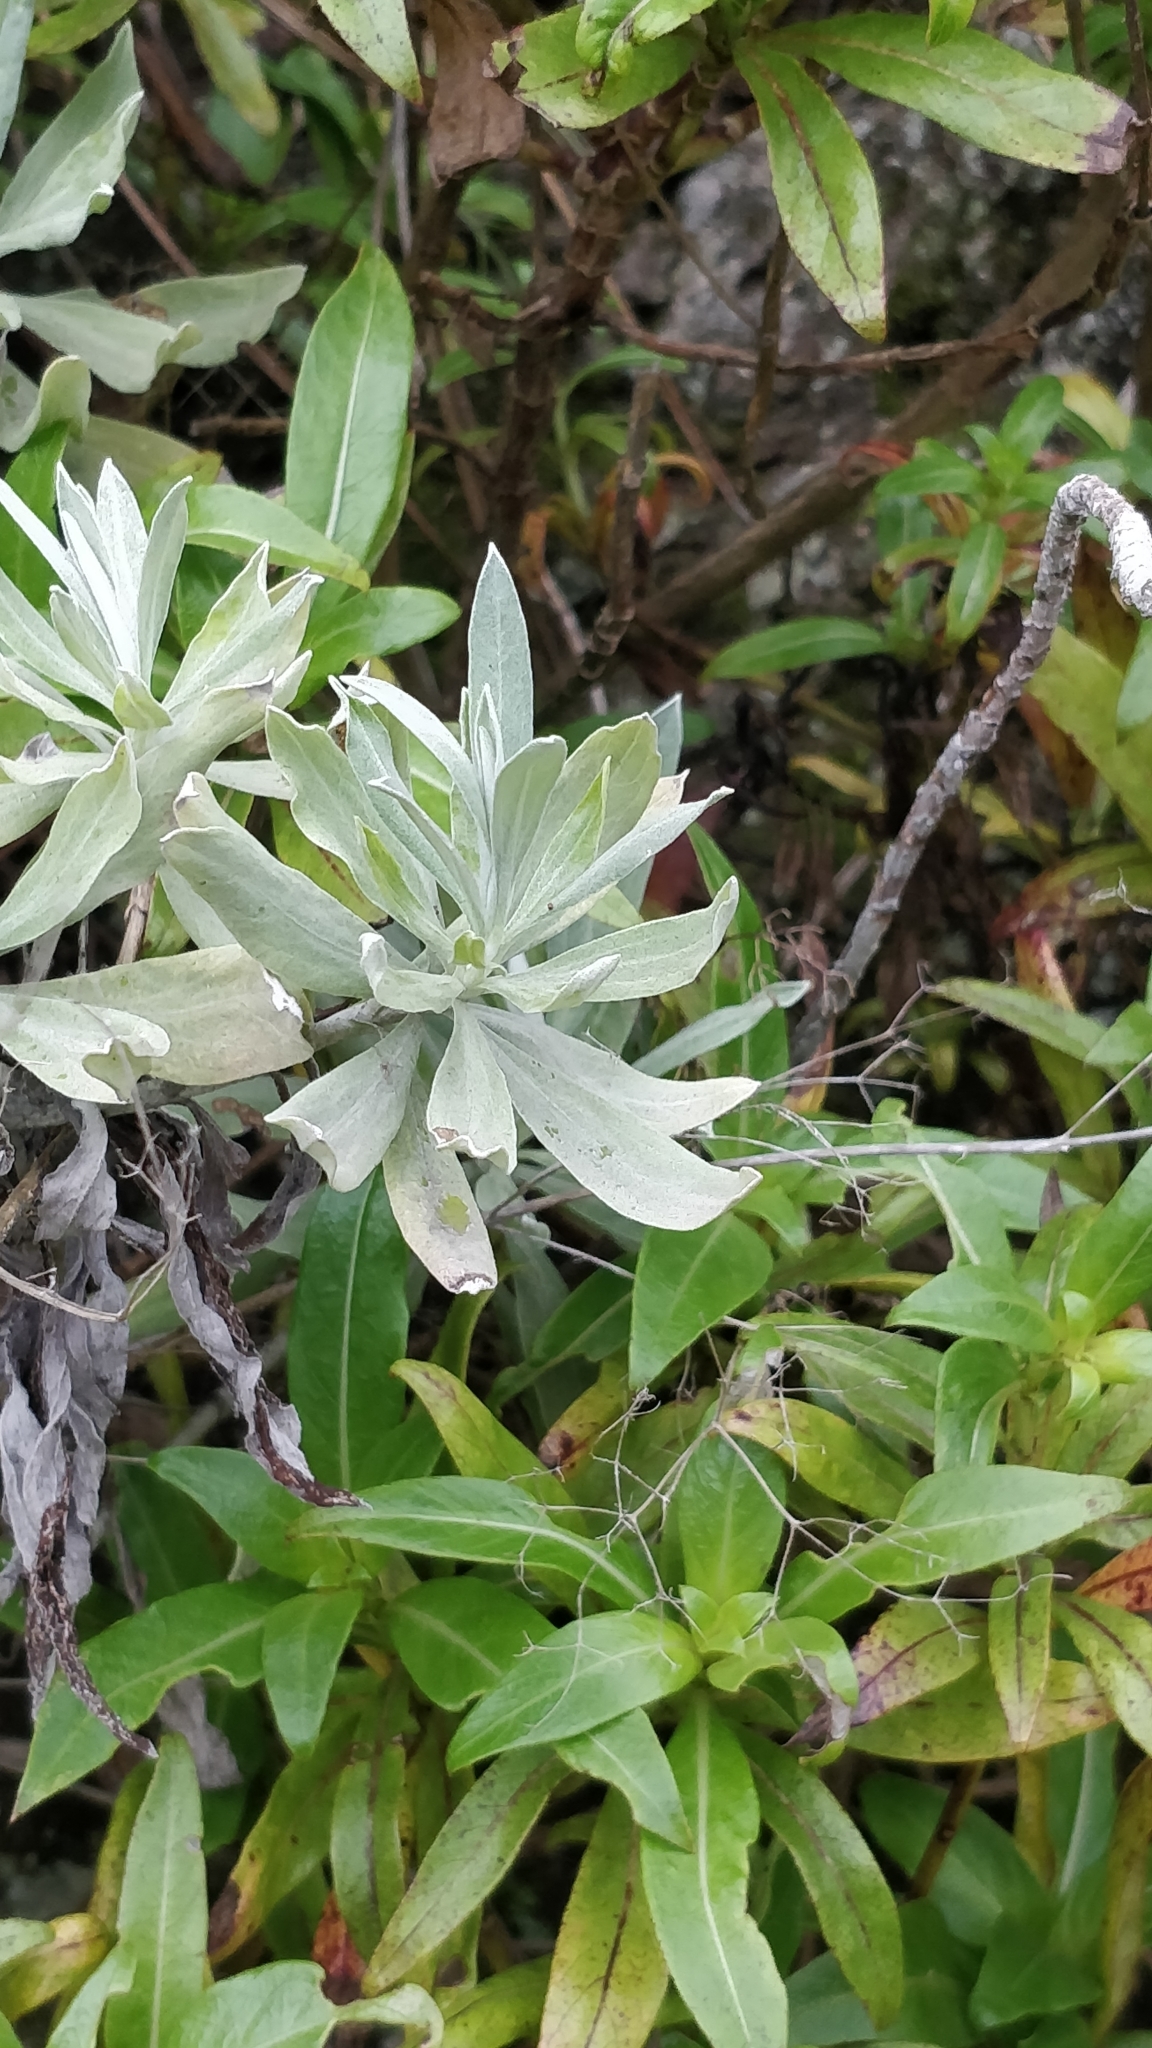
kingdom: Plantae
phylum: Tracheophyta
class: Magnoliopsida
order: Asterales
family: Asteraceae
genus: Helichrysum
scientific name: Helichrysum melaleucum
